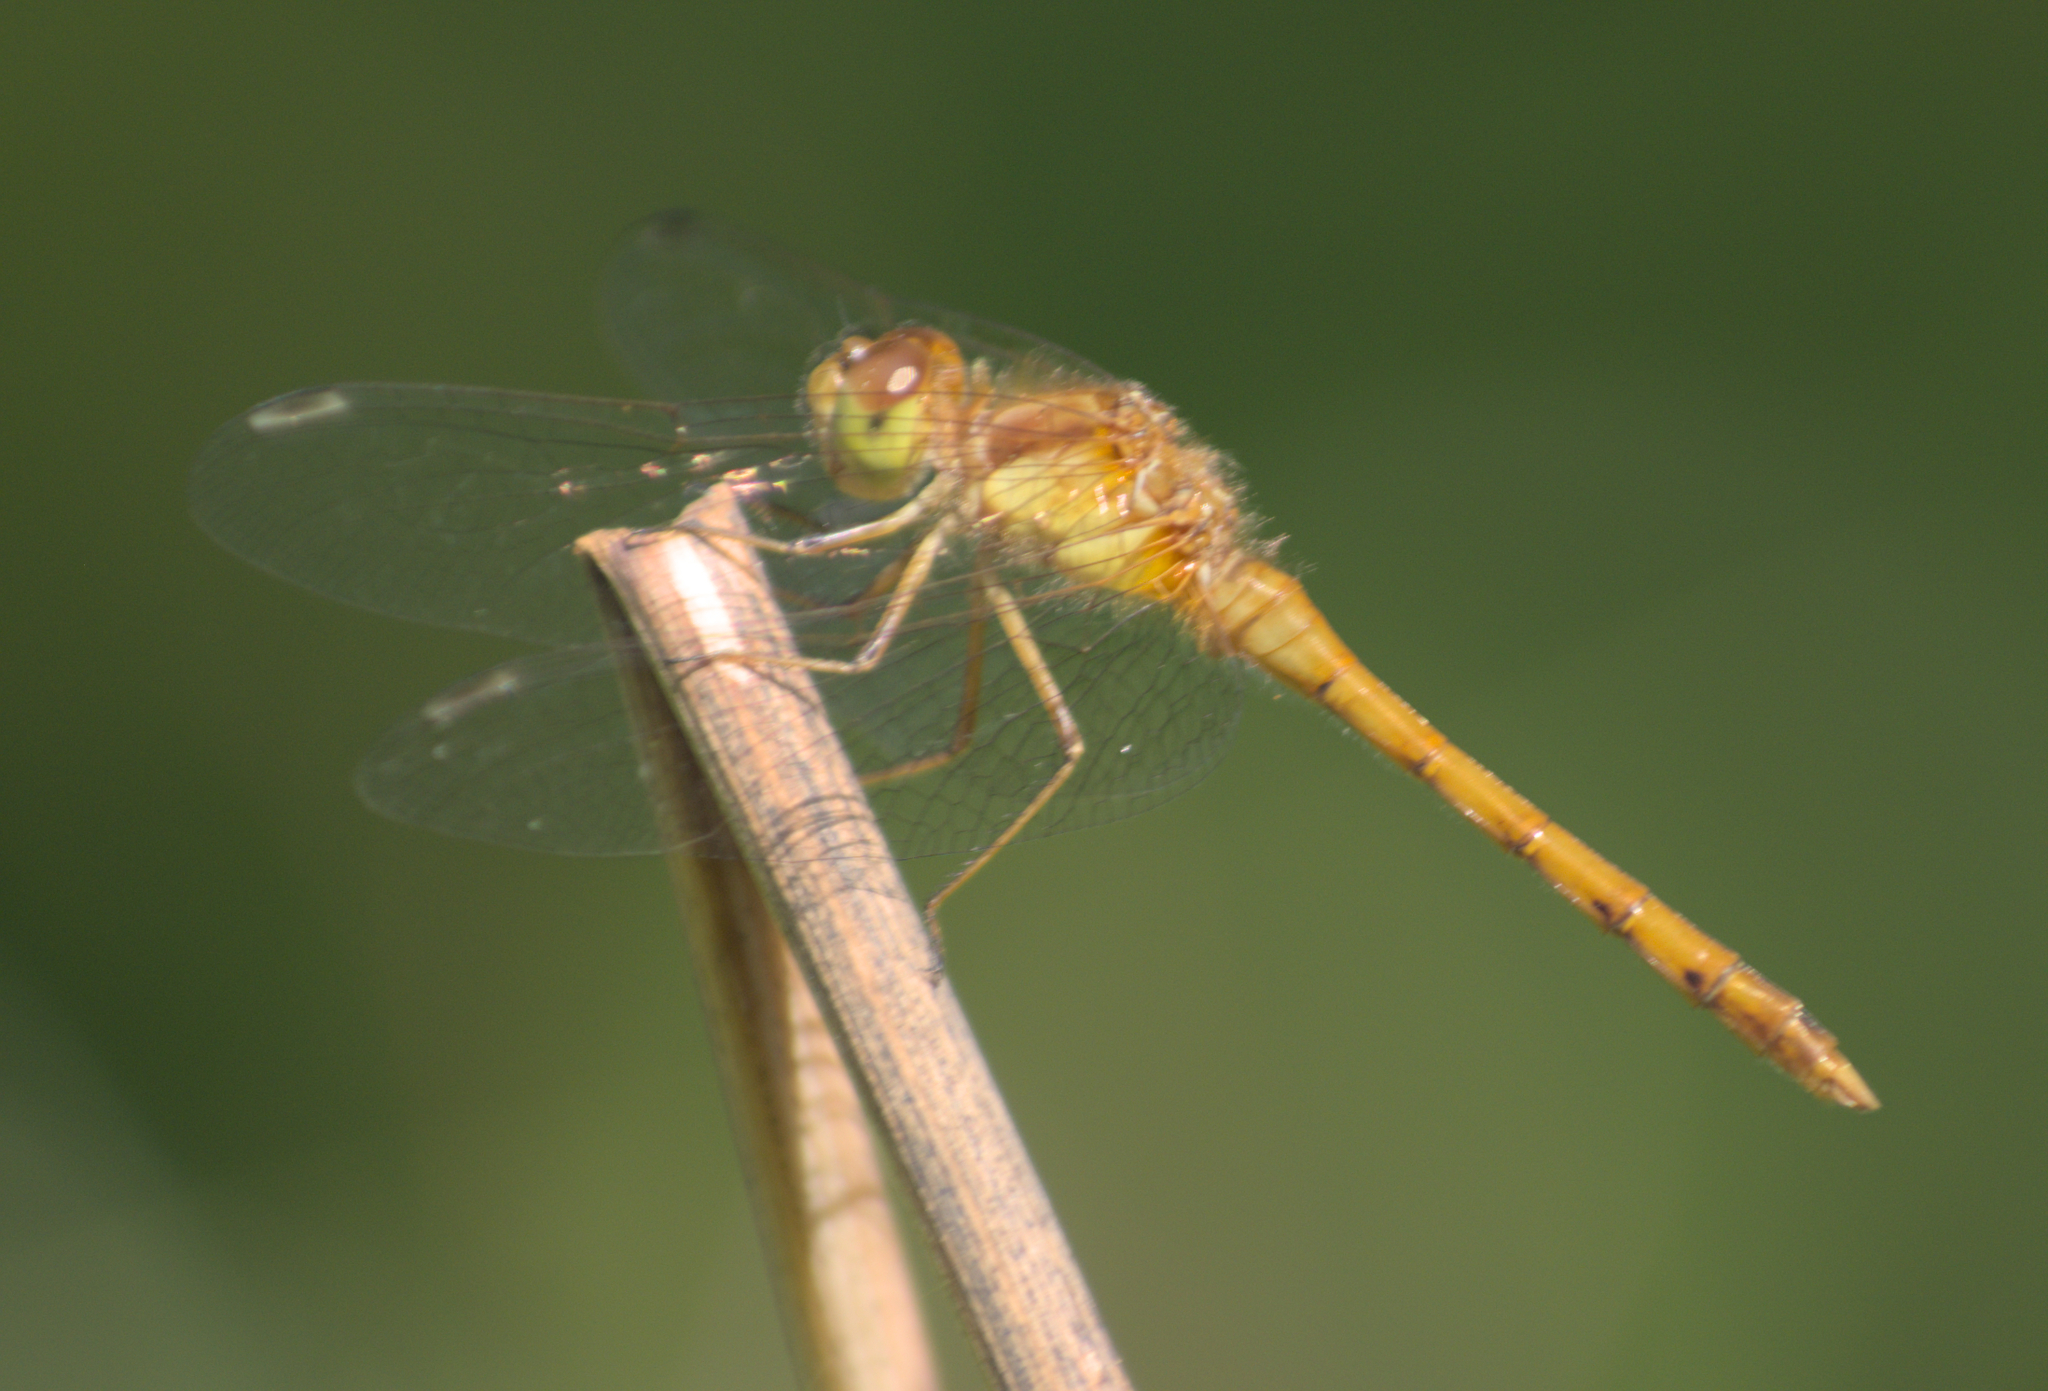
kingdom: Animalia
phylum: Arthropoda
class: Insecta
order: Odonata
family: Libellulidae
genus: Sympetrum
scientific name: Sympetrum vicinum
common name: Autumn meadowhawk
